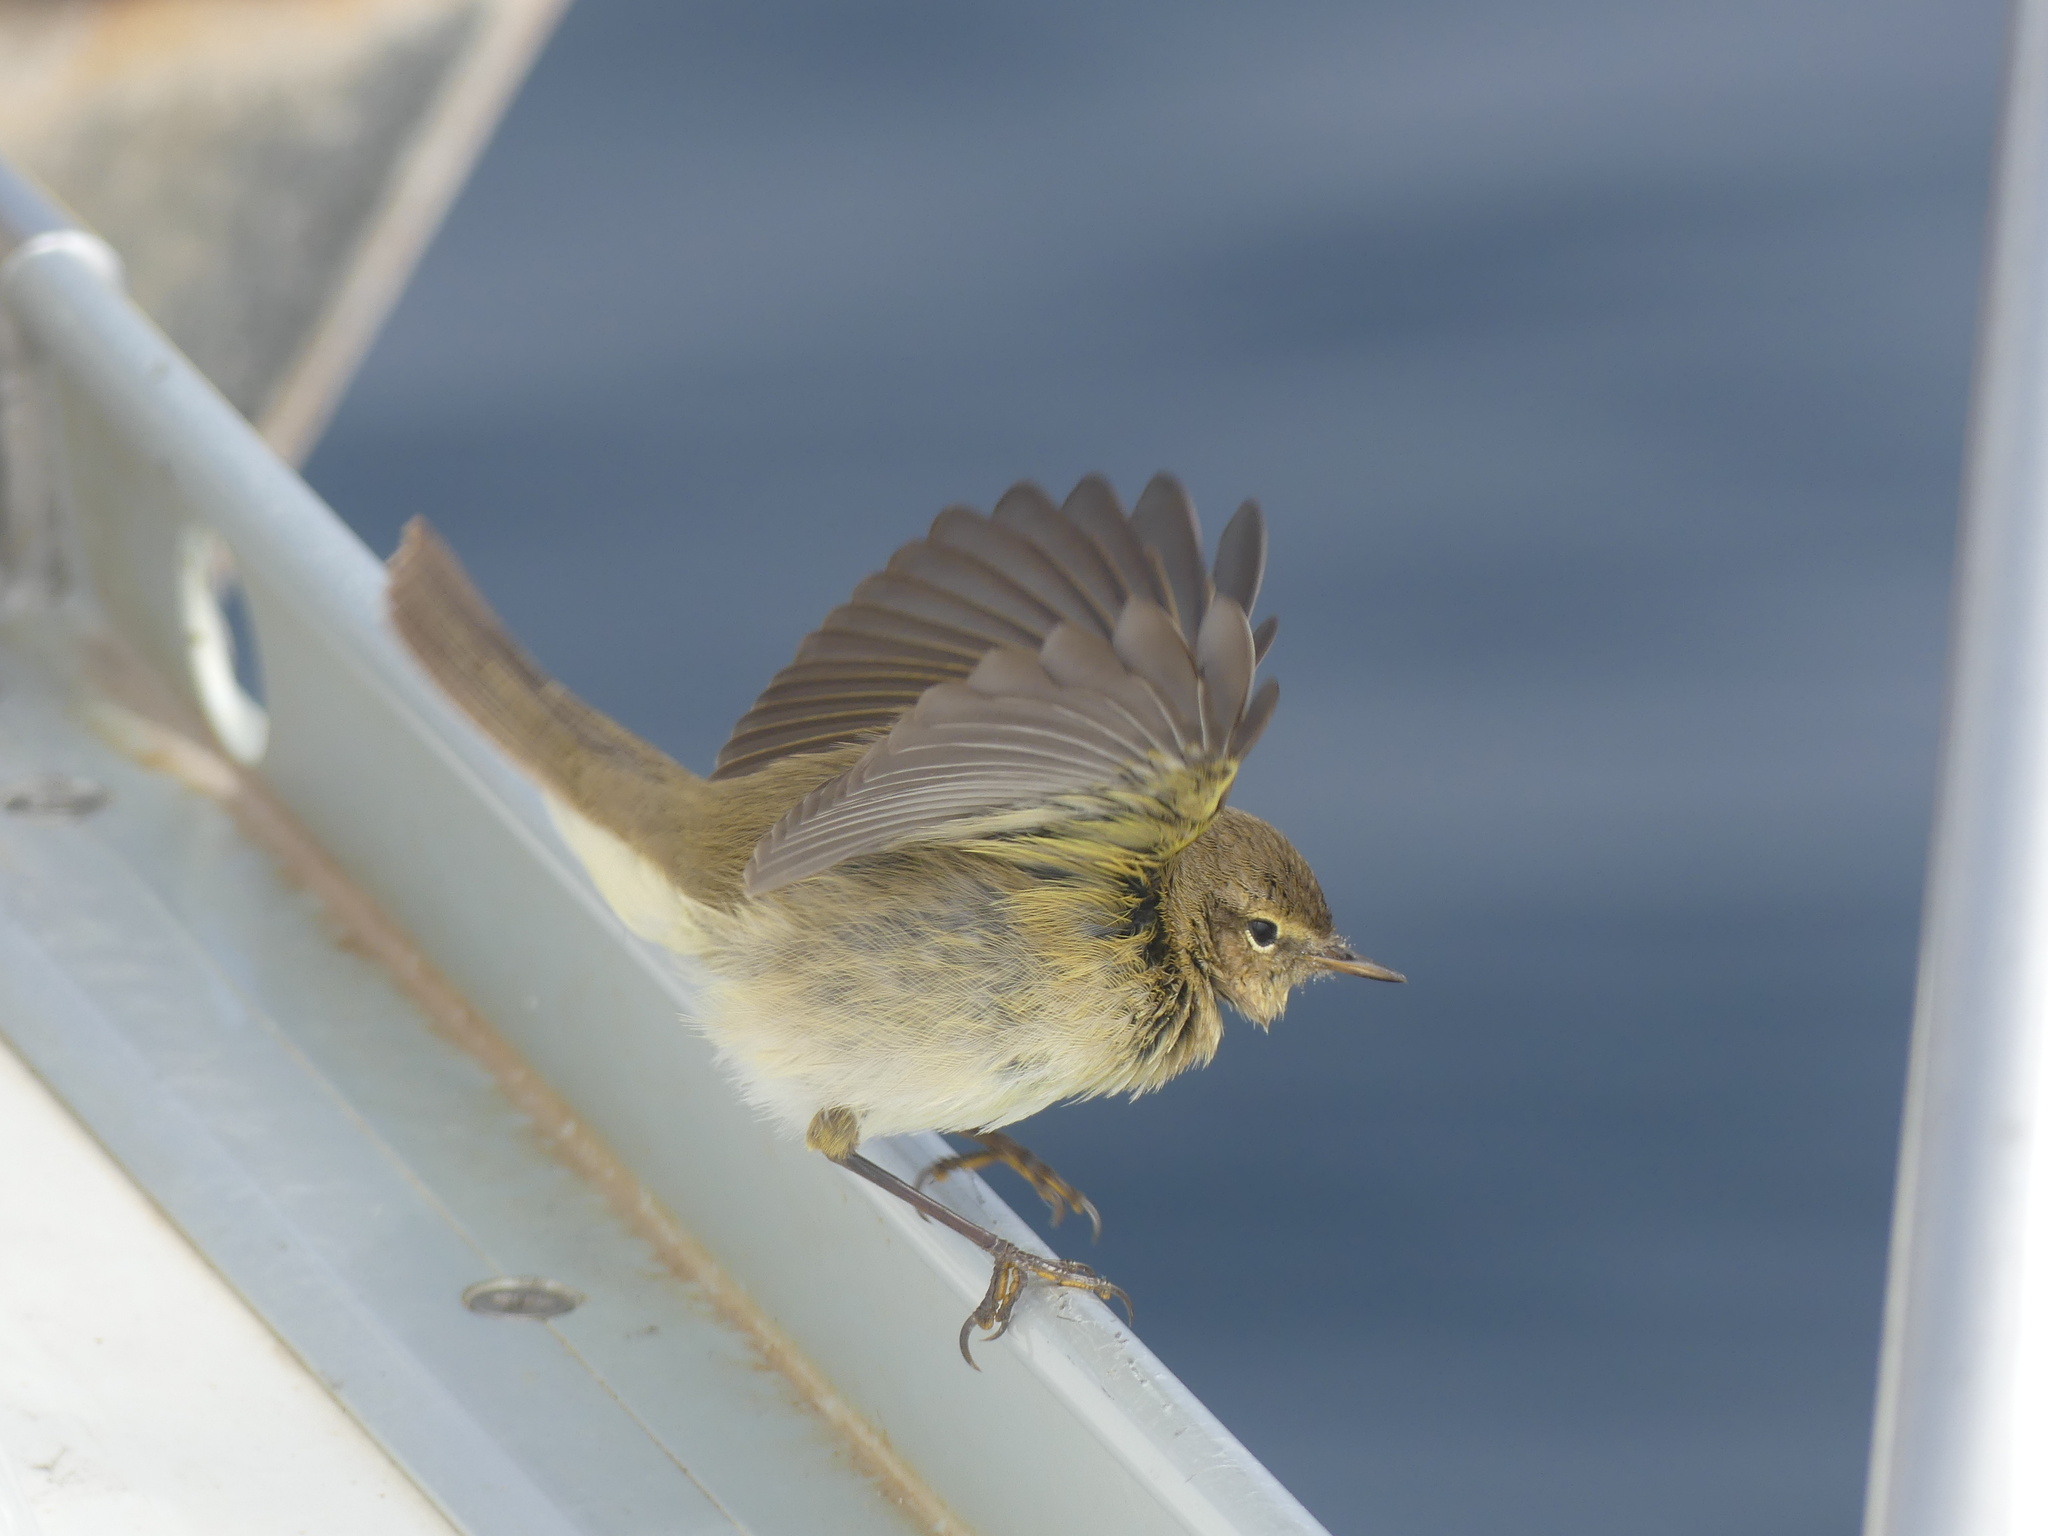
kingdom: Animalia
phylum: Chordata
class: Aves
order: Passeriformes
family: Phylloscopidae
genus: Phylloscopus
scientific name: Phylloscopus collybita
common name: Common chiffchaff
